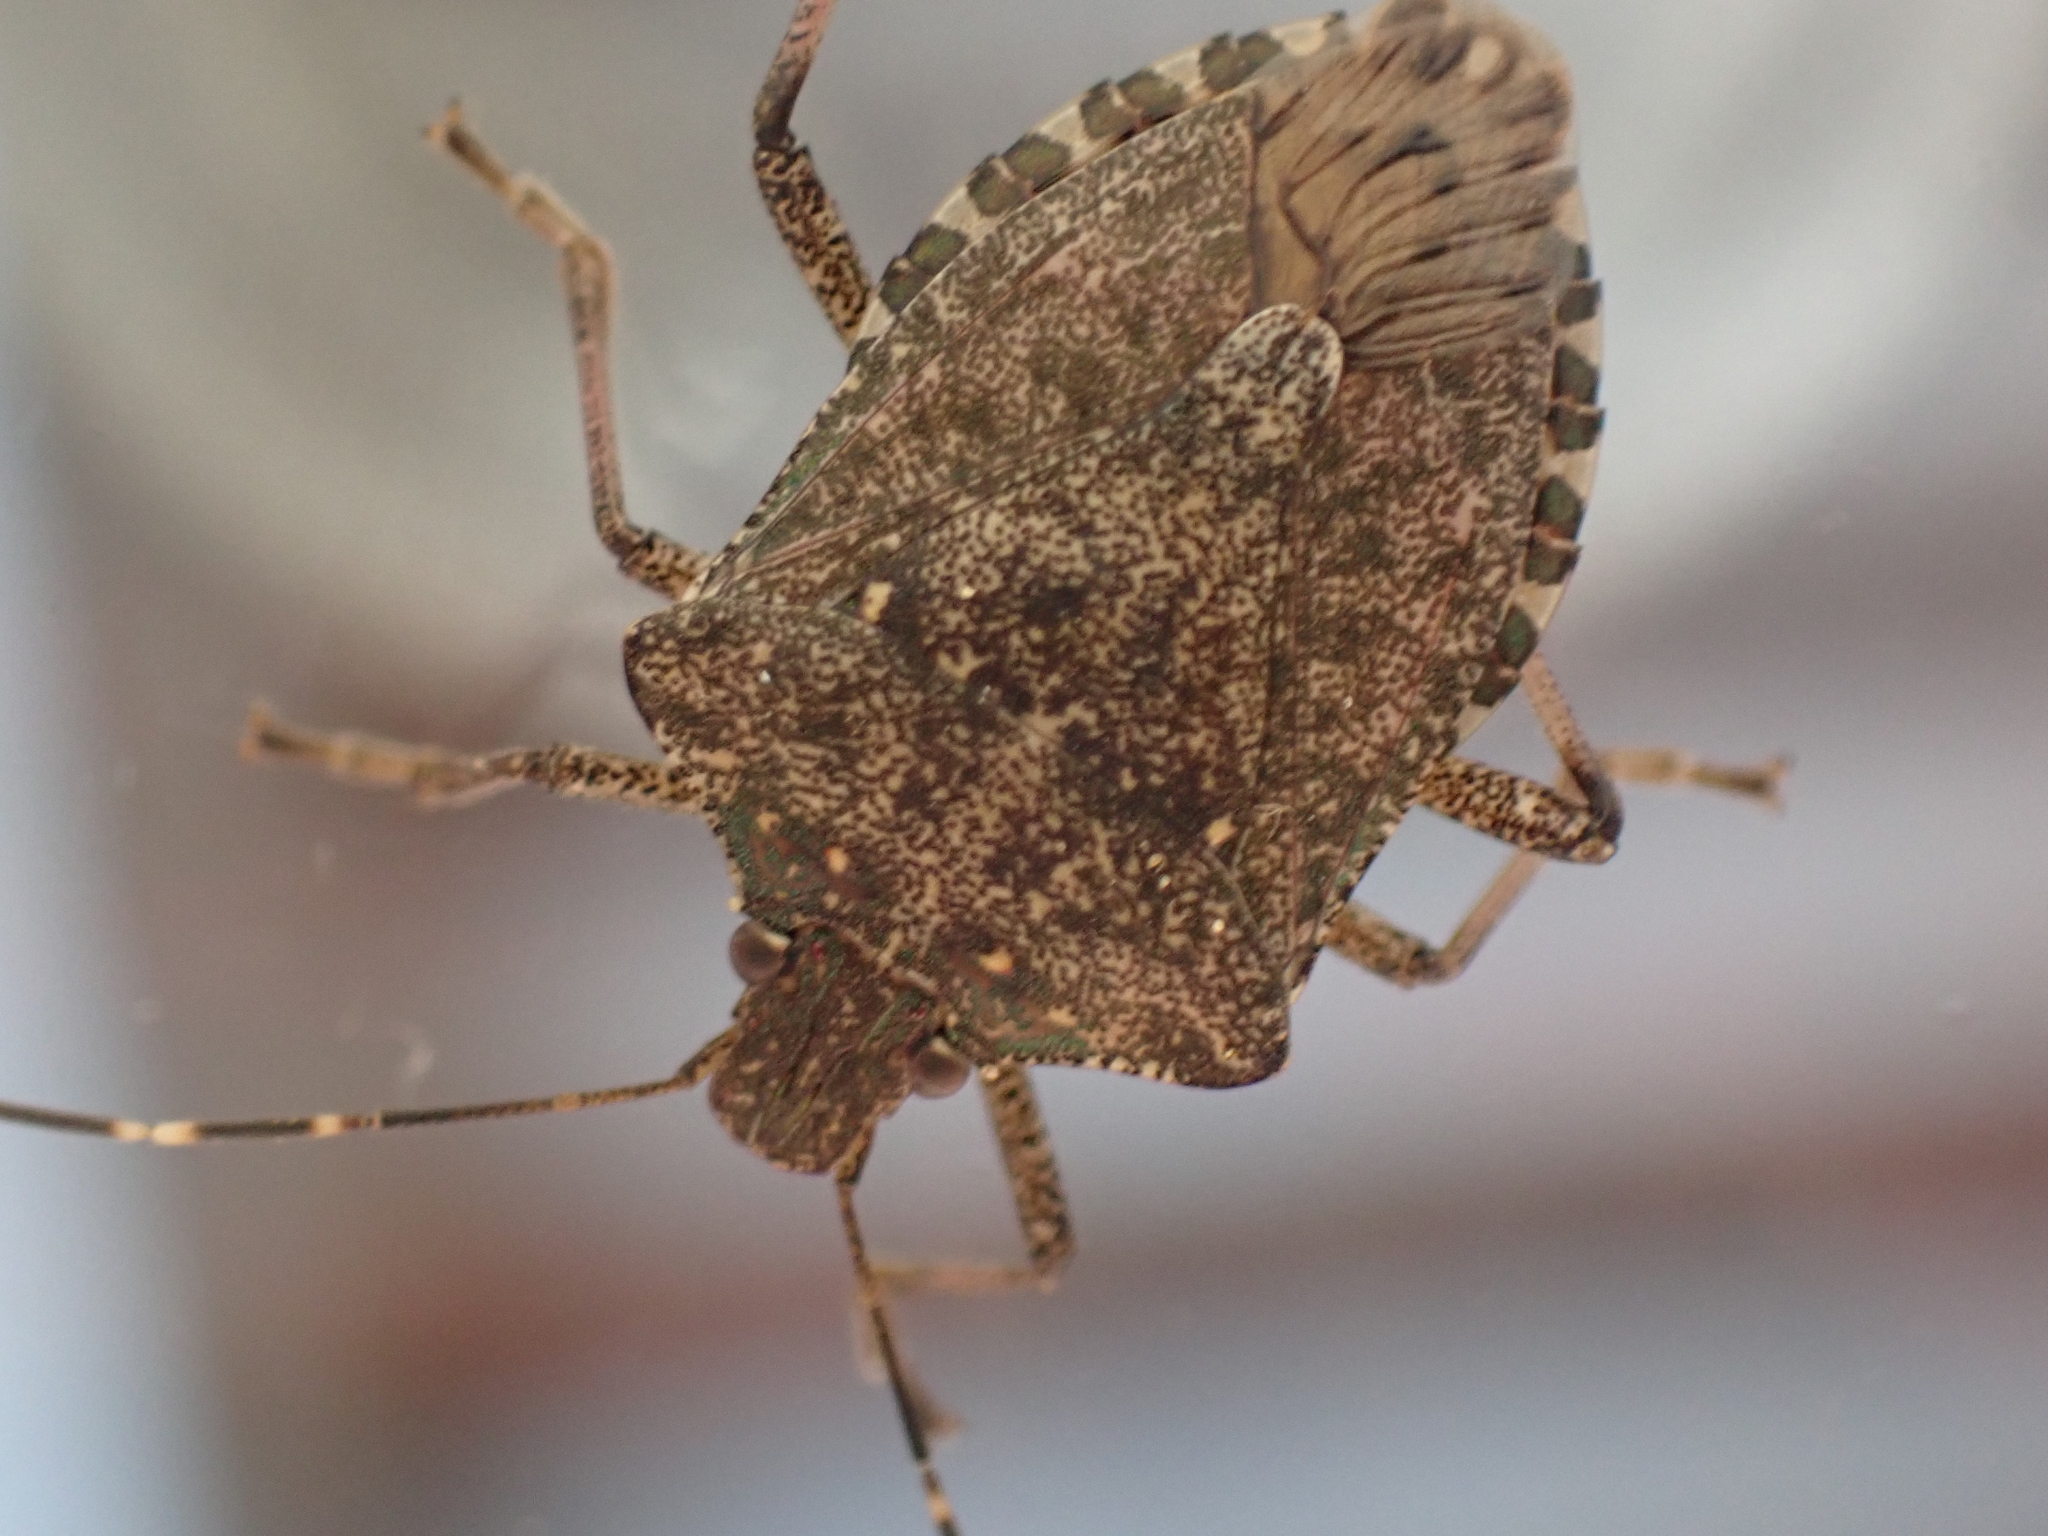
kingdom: Animalia
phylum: Arthropoda
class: Insecta
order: Hemiptera
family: Pentatomidae
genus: Halyomorpha
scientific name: Halyomorpha halys
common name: Brown marmorated stink bug
